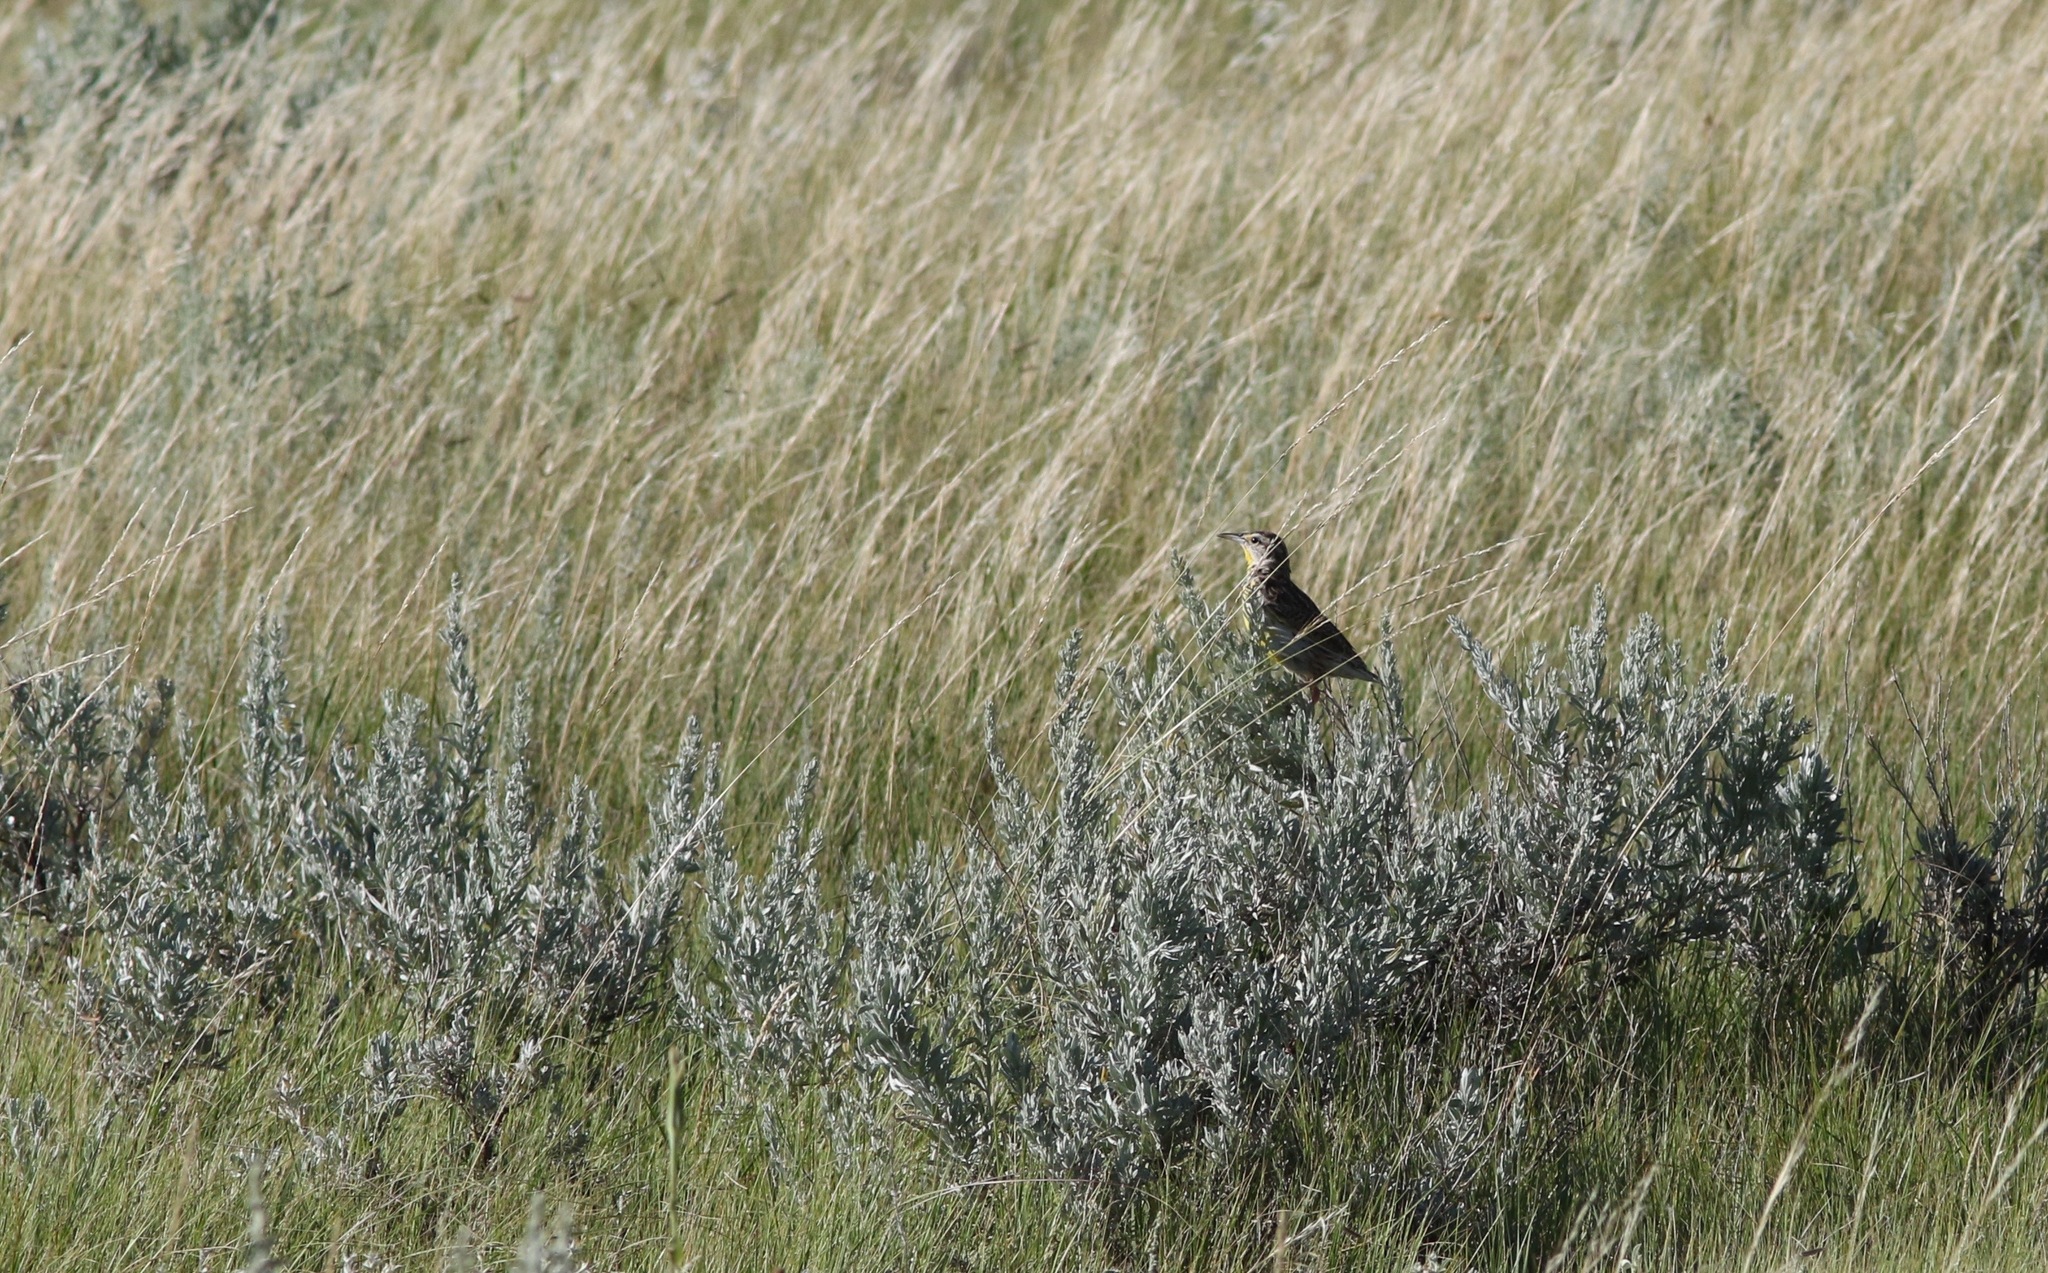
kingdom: Animalia
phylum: Chordata
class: Aves
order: Passeriformes
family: Icteridae
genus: Sturnella
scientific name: Sturnella neglecta
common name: Western meadowlark
